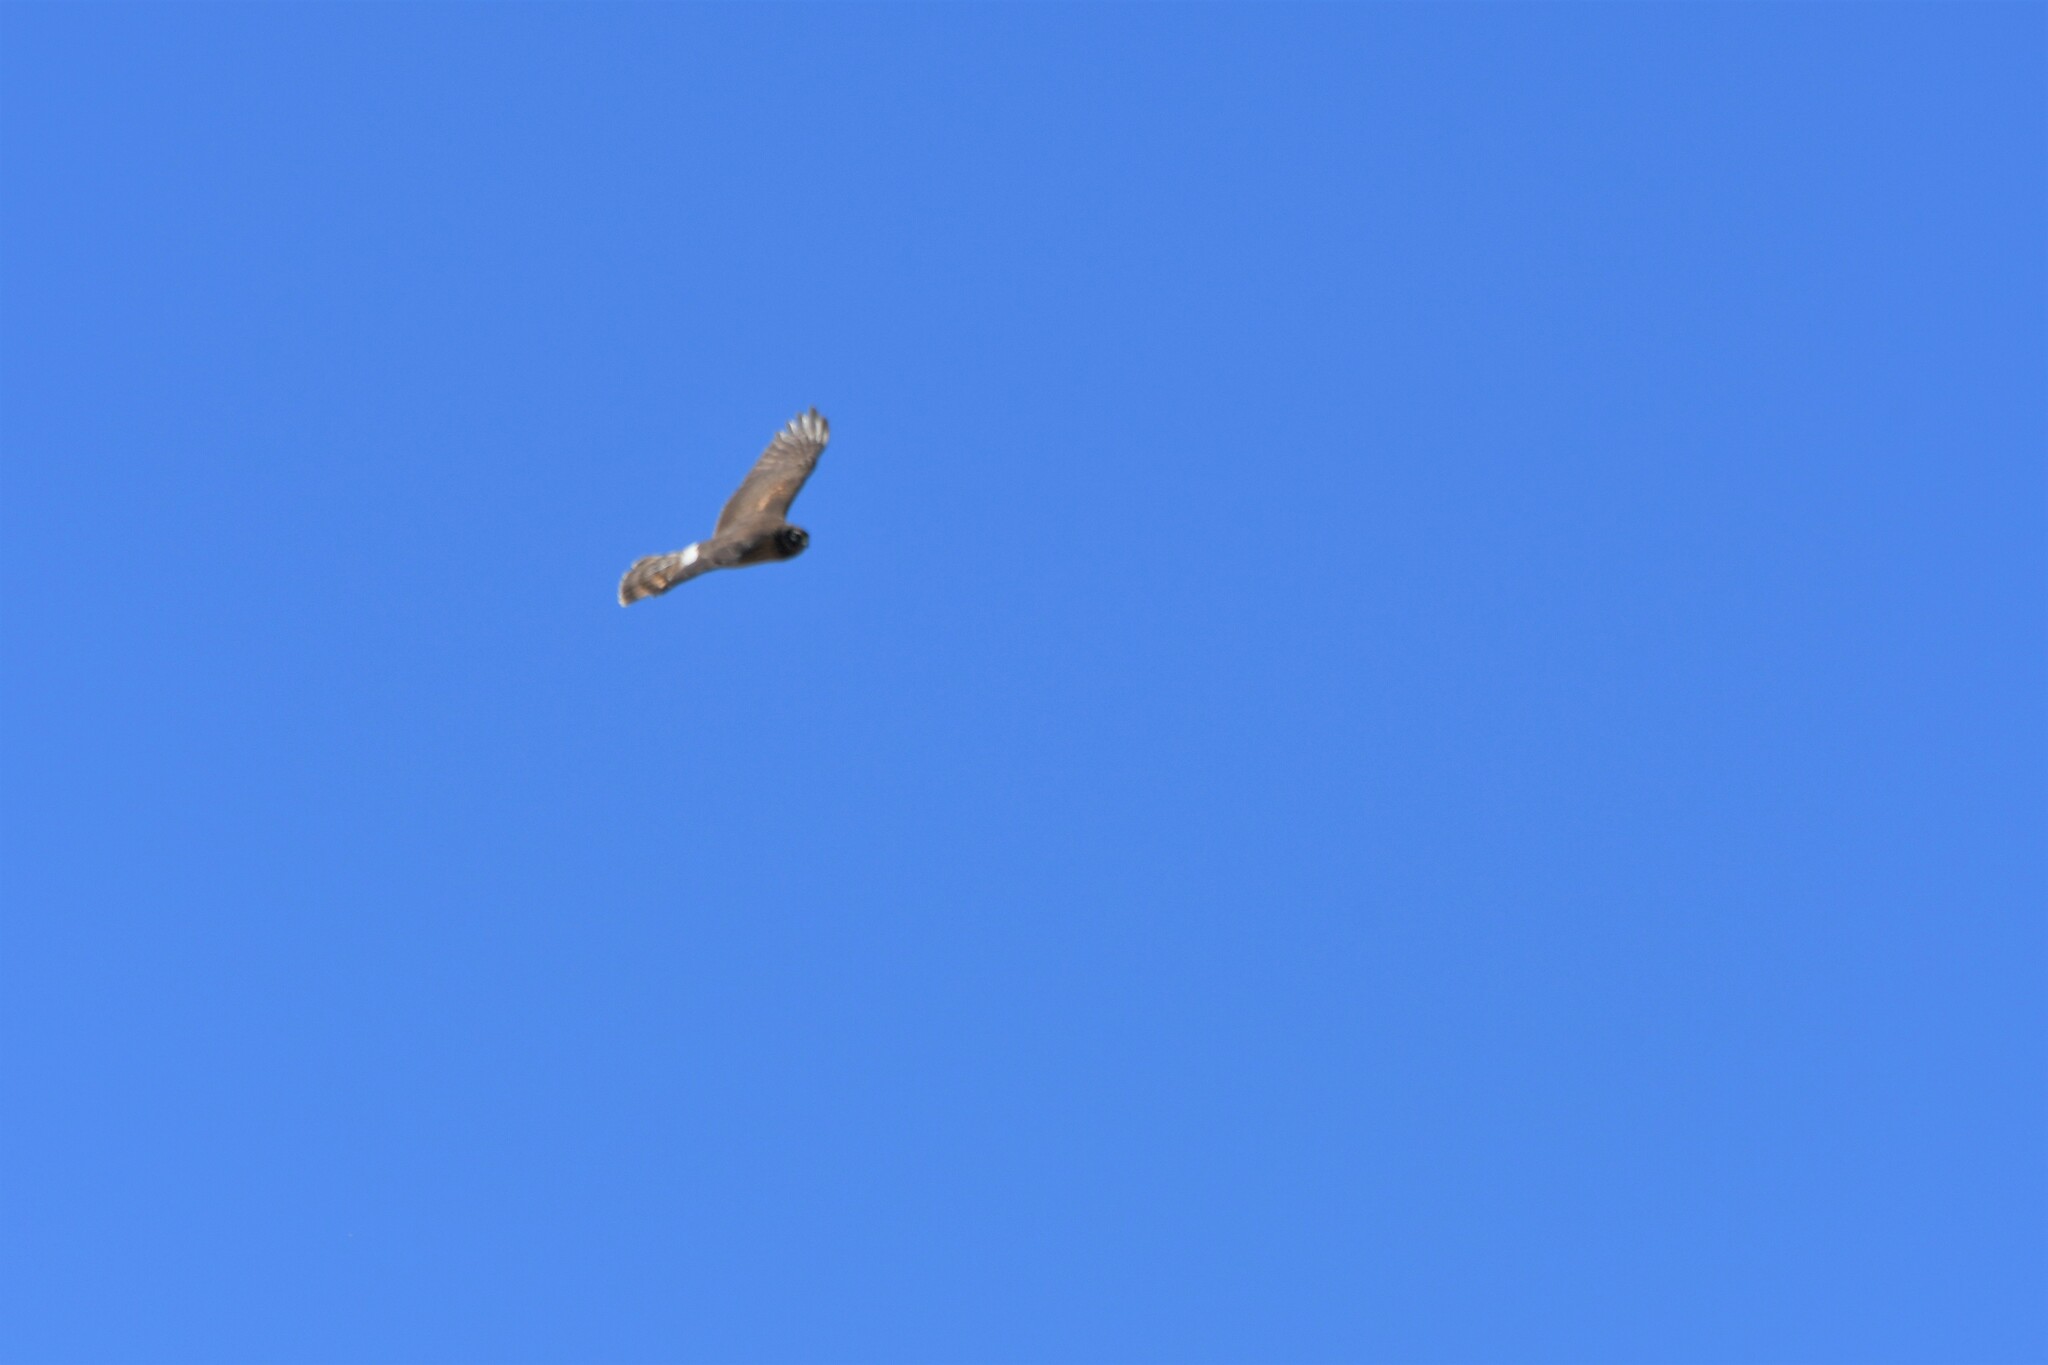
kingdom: Animalia
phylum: Chordata
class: Aves
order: Accipitriformes
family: Accipitridae
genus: Circus
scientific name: Circus cyaneus
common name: Hen harrier
